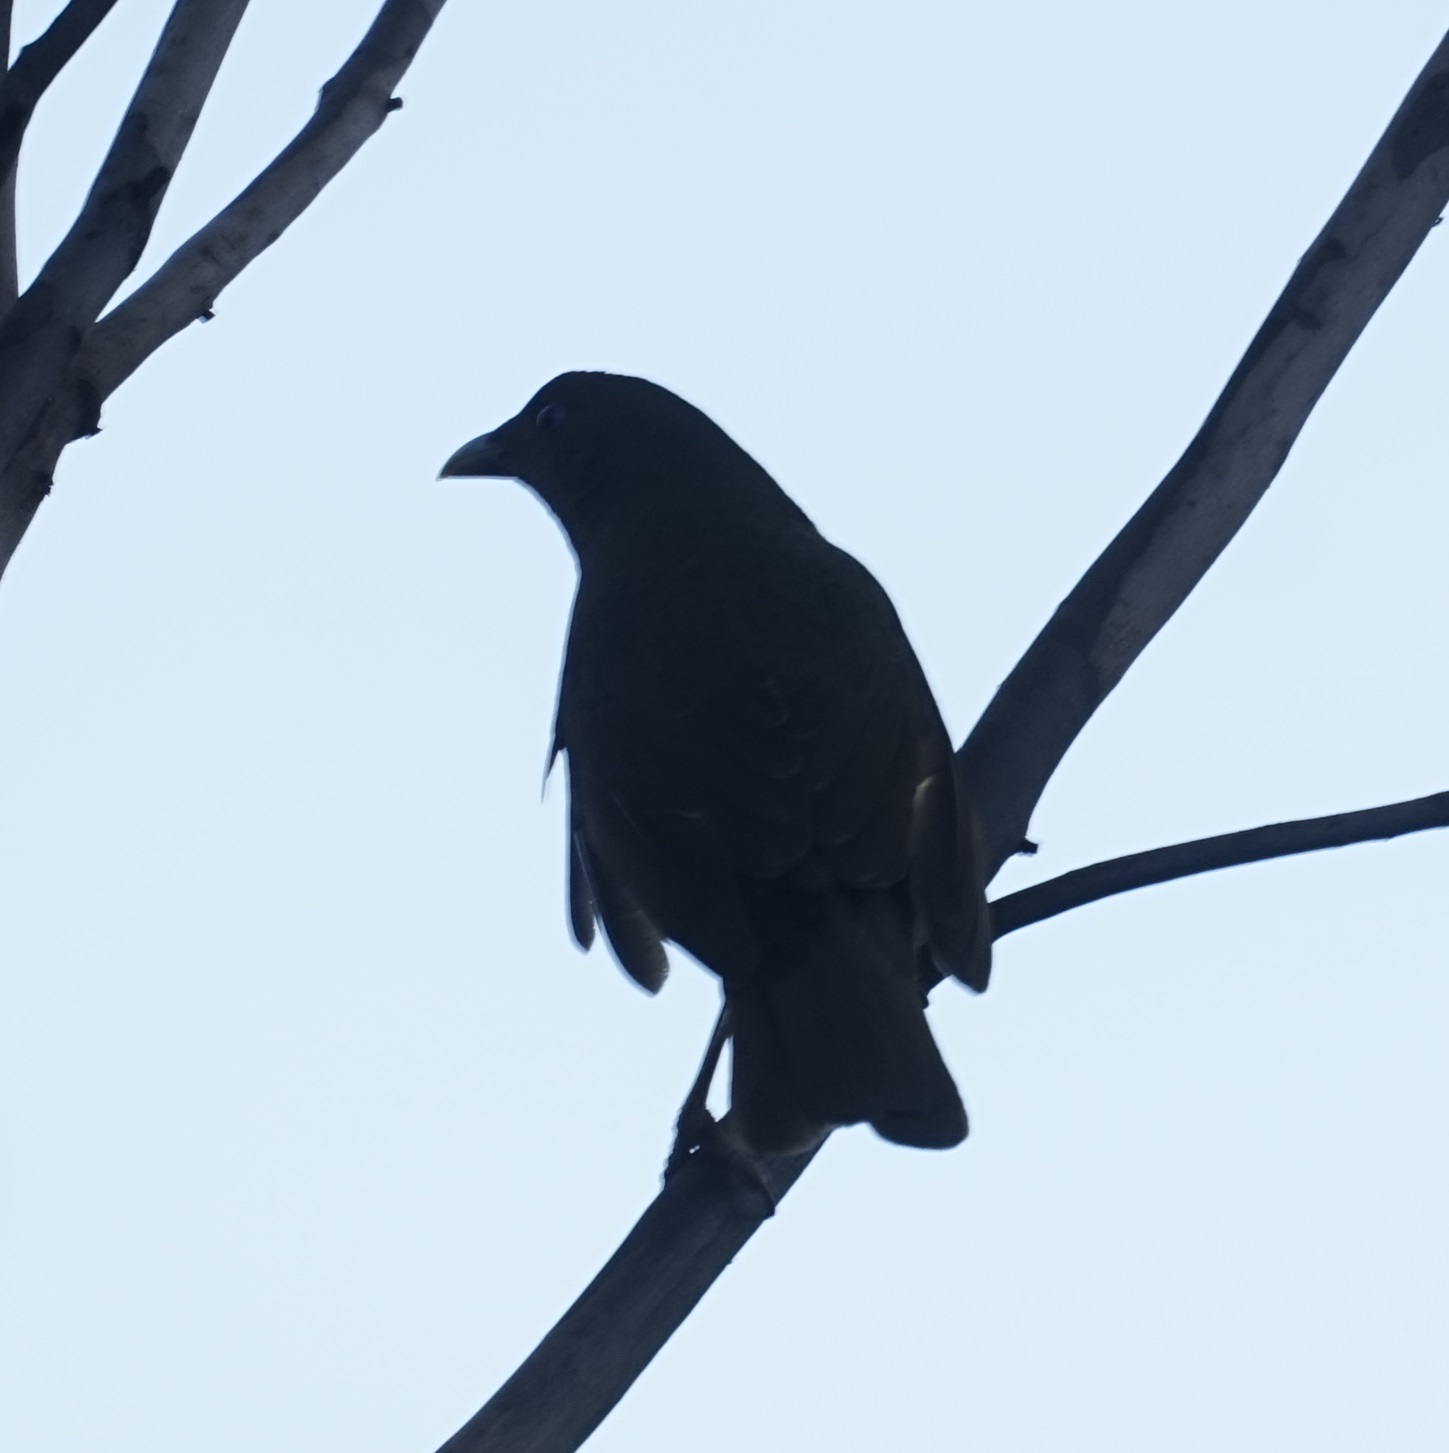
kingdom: Animalia
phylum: Chordata
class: Aves
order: Passeriformes
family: Ptilonorhynchidae
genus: Ptilonorhynchus
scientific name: Ptilonorhynchus violaceus
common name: Satin bowerbird
